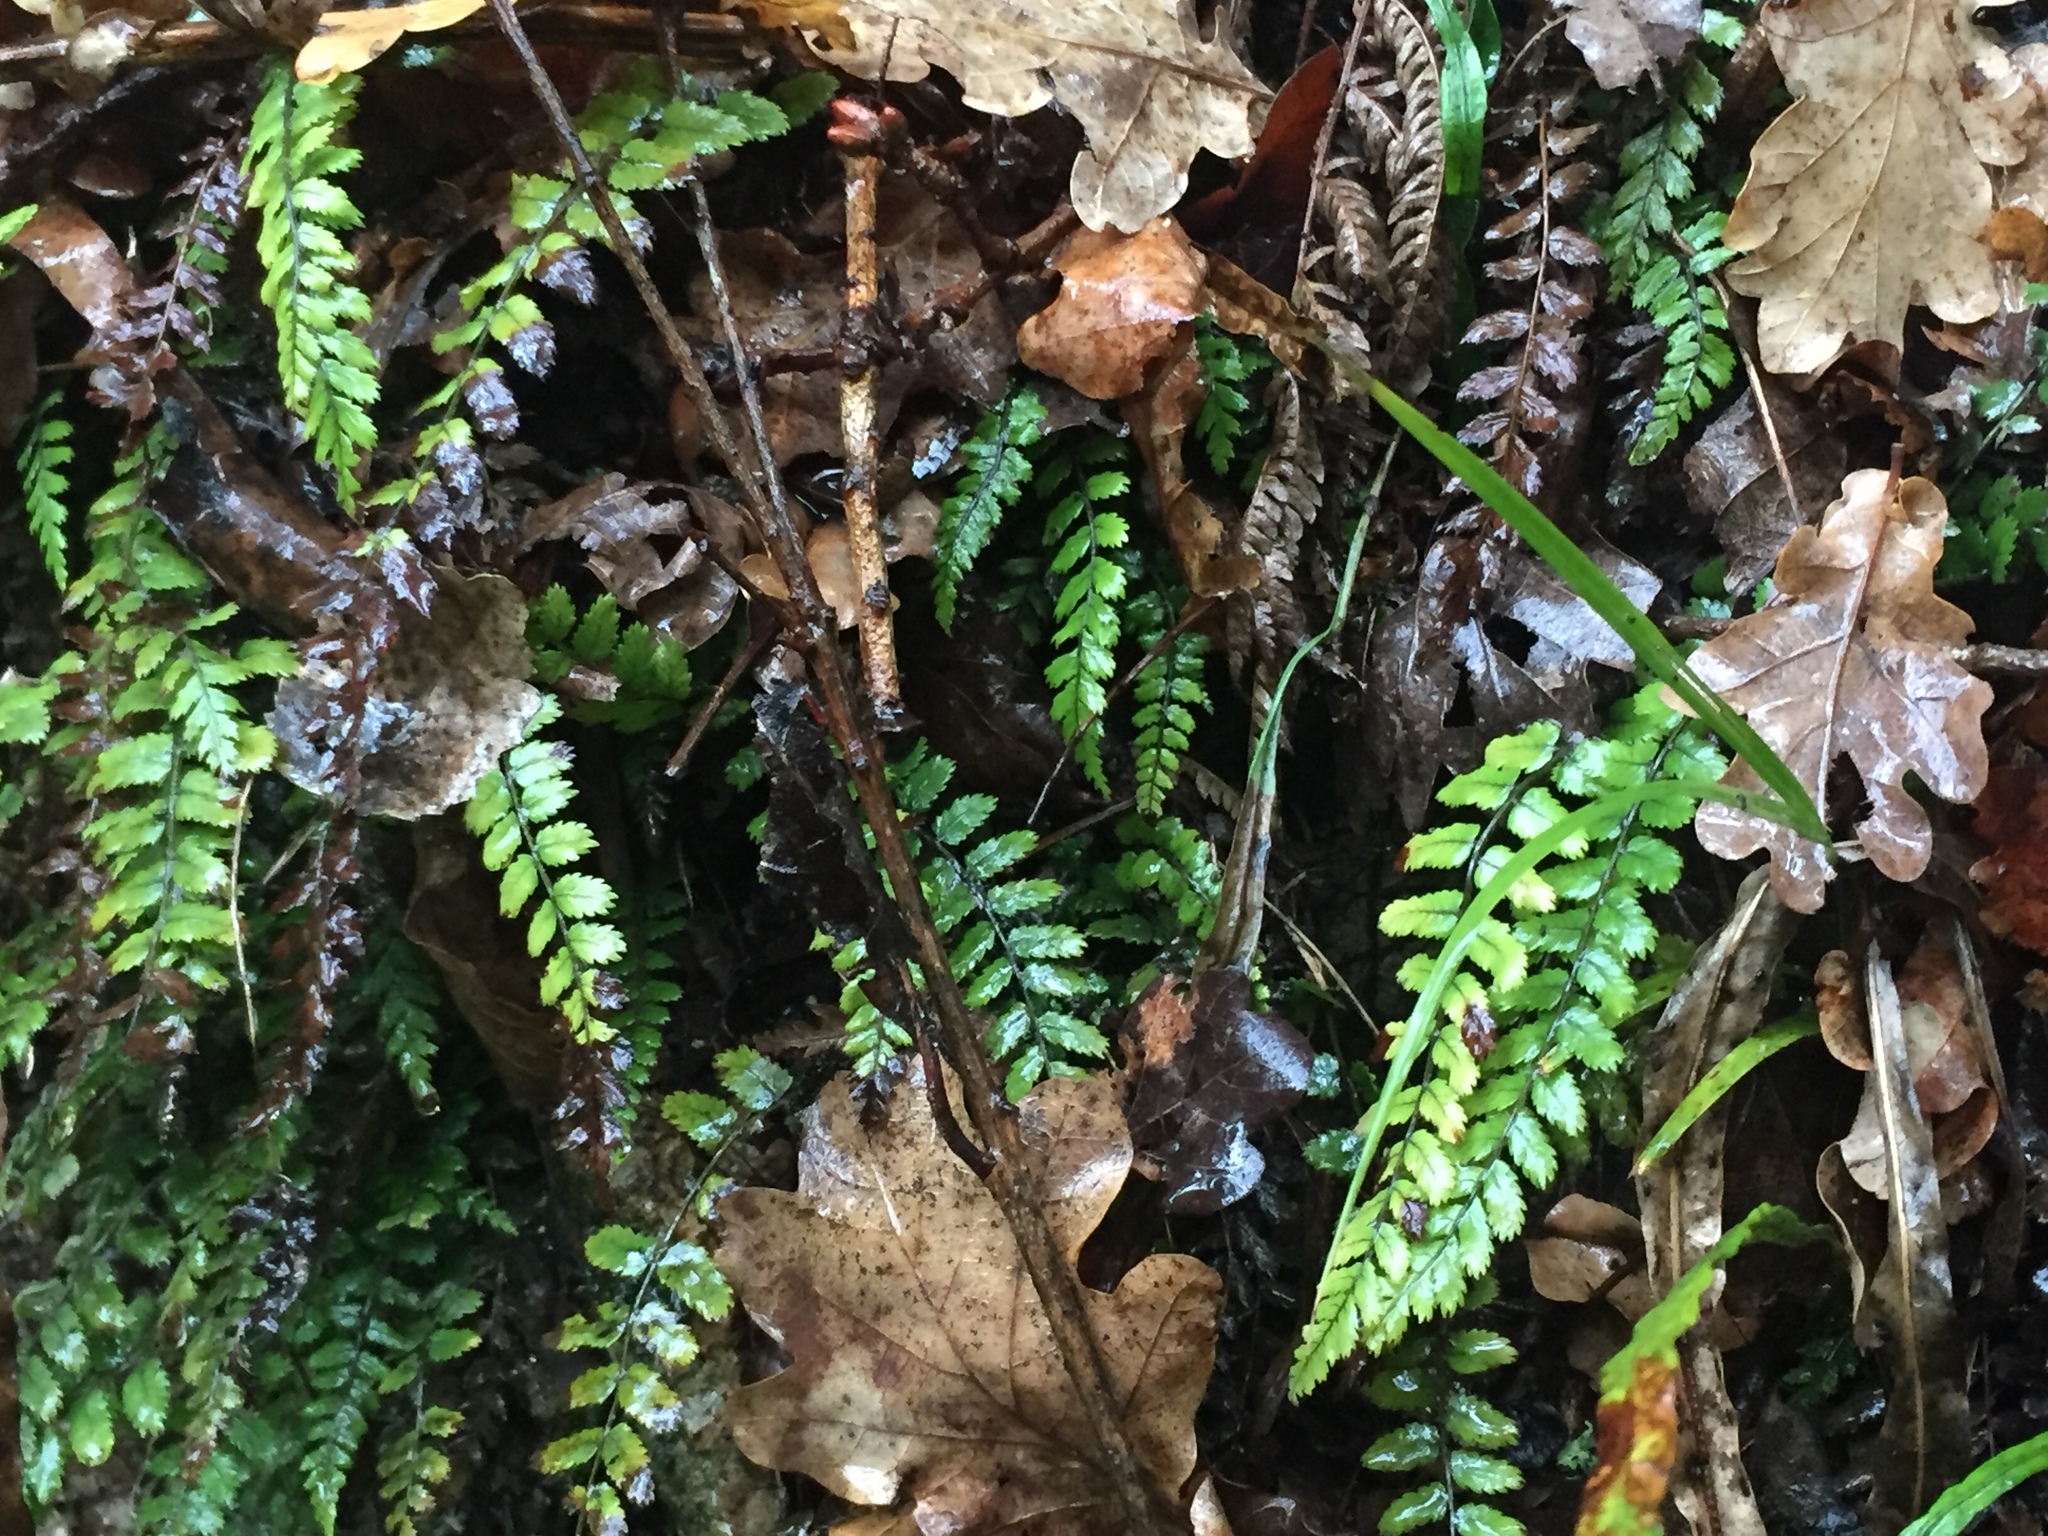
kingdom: Plantae
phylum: Tracheophyta
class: Polypodiopsida
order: Polypodiales
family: Blechnaceae
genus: Icarus
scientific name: Icarus filiformis
